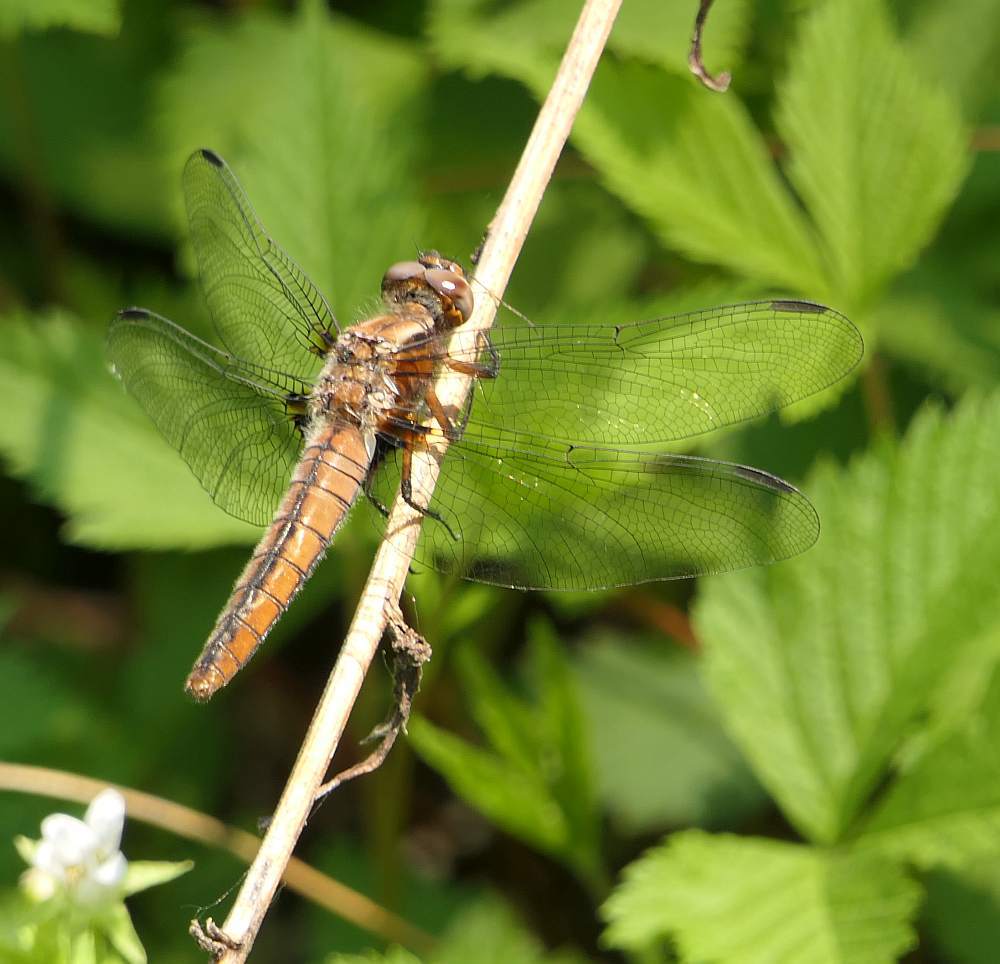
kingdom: Animalia
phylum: Arthropoda
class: Insecta
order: Odonata
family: Libellulidae
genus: Ladona
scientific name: Ladona julia
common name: Chalk-fronted corporal
